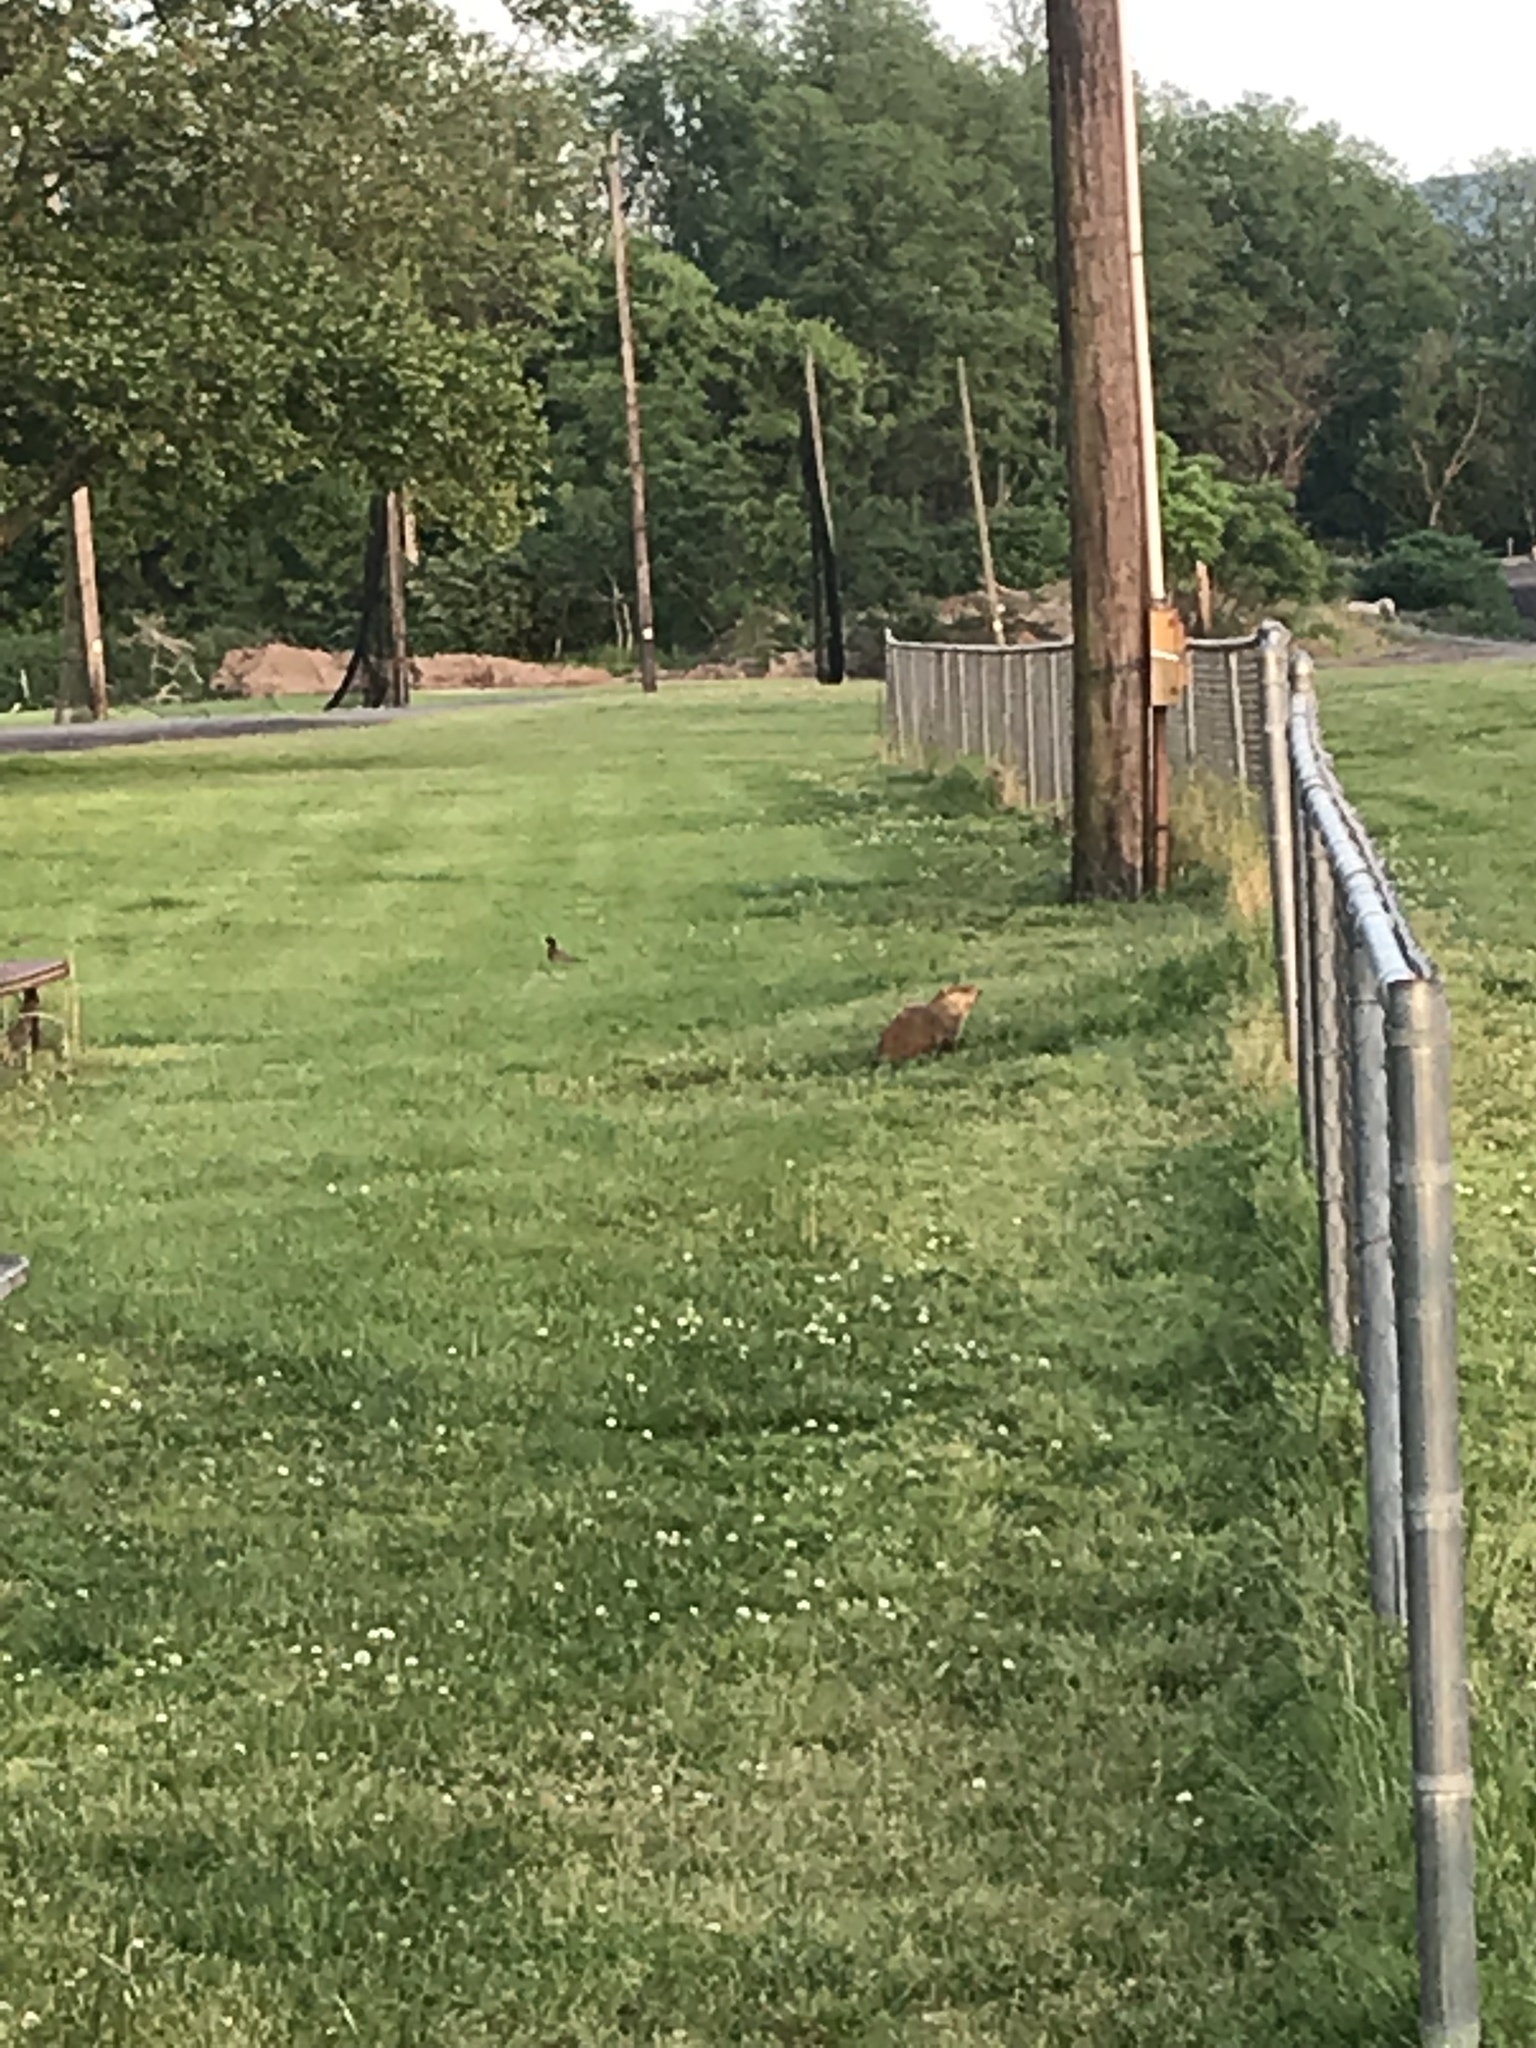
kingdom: Animalia
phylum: Chordata
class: Mammalia
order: Rodentia
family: Sciuridae
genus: Marmota
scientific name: Marmota monax
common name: Groundhog
